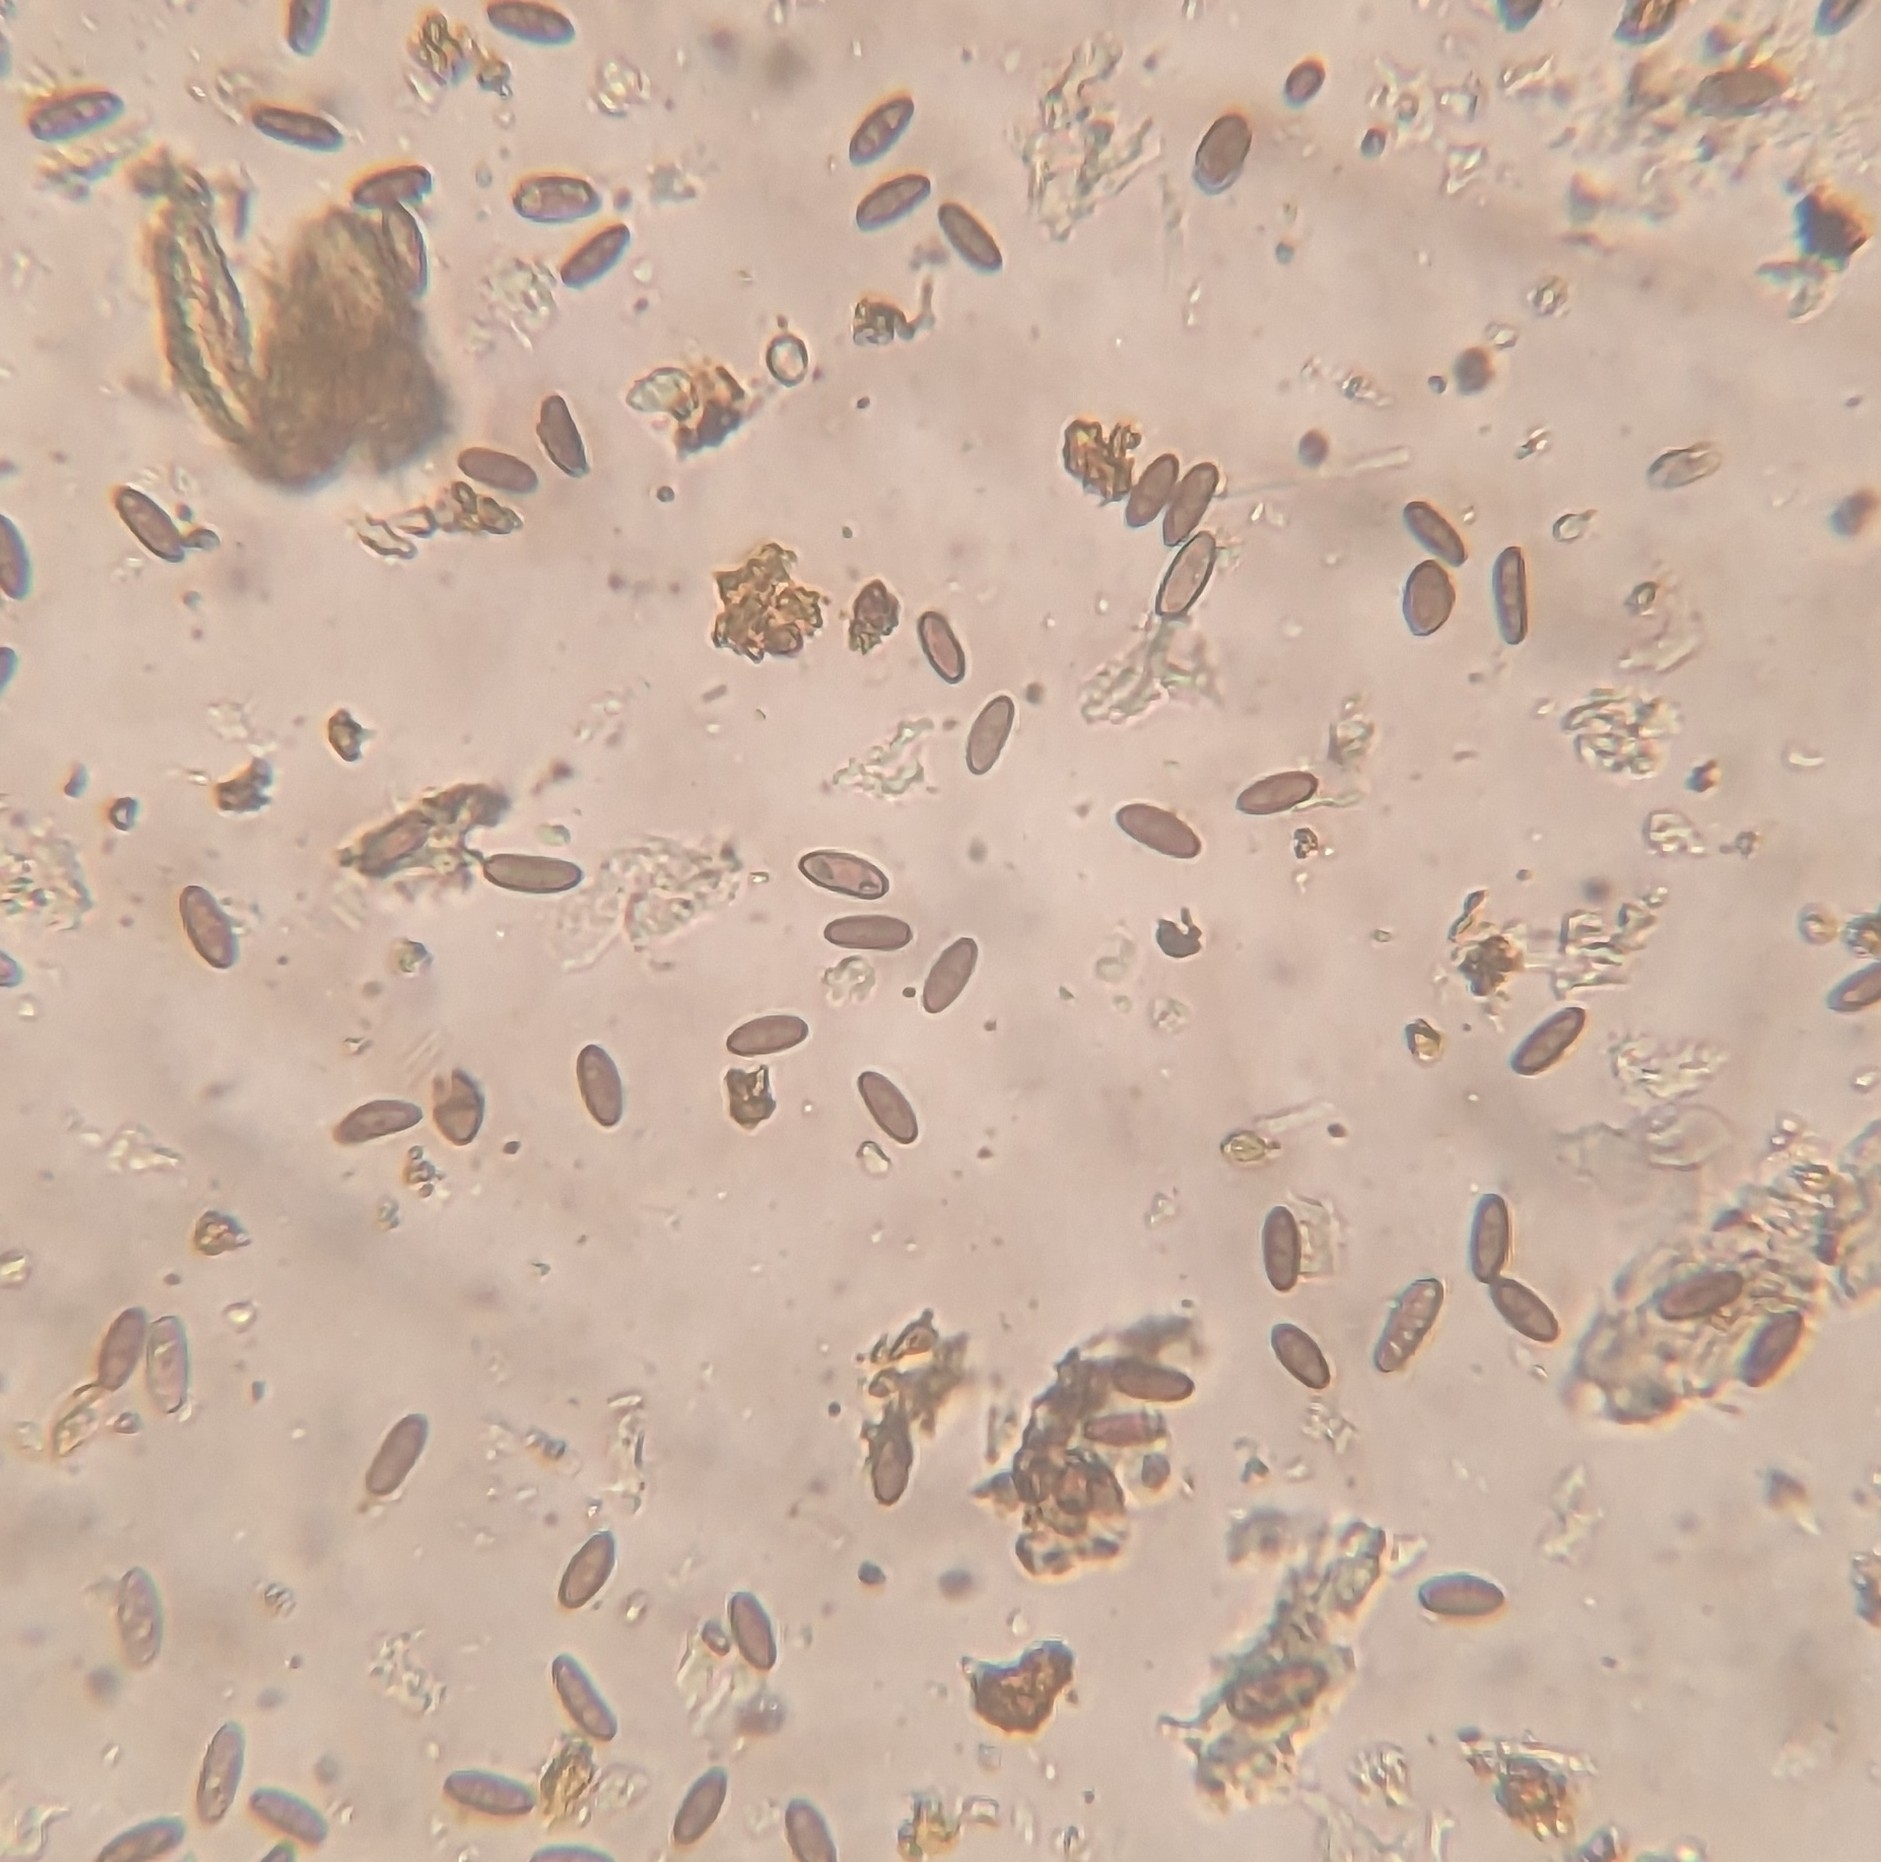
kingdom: Fungi
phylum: Ascomycota
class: Sordariomycetes
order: Xylariales
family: Lopadostomataceae
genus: Creosphaeria
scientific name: Creosphaeria sassafras
